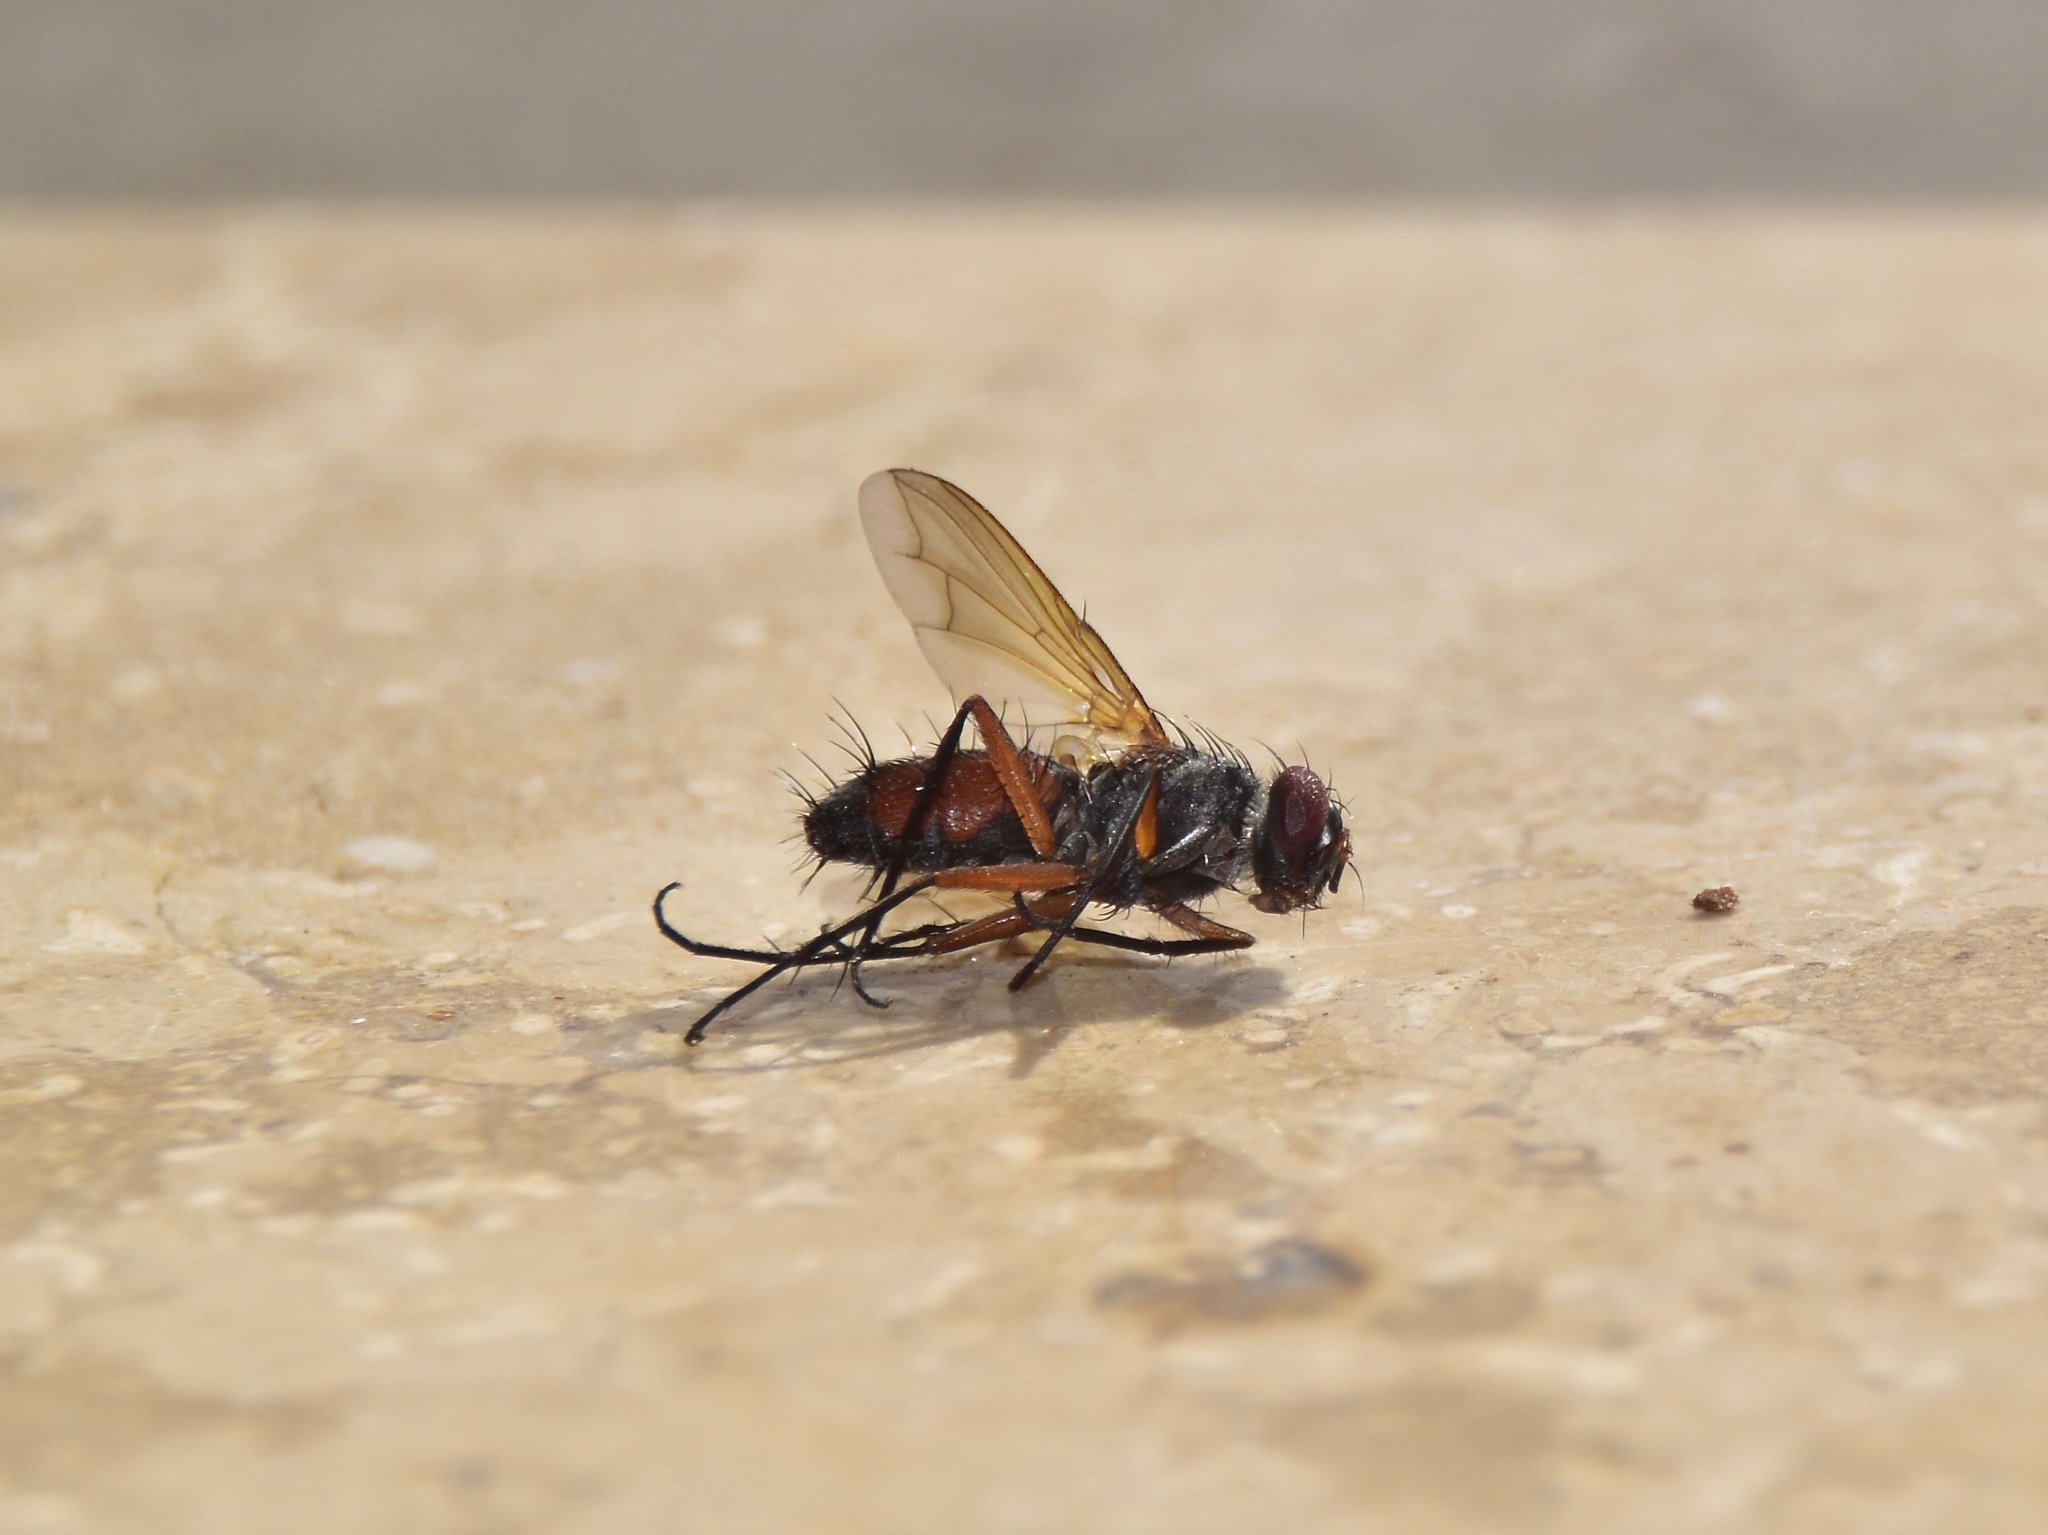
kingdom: Animalia
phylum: Arthropoda
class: Insecta
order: Diptera
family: Tachinidae
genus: Mintho
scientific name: Mintho rufiventris
